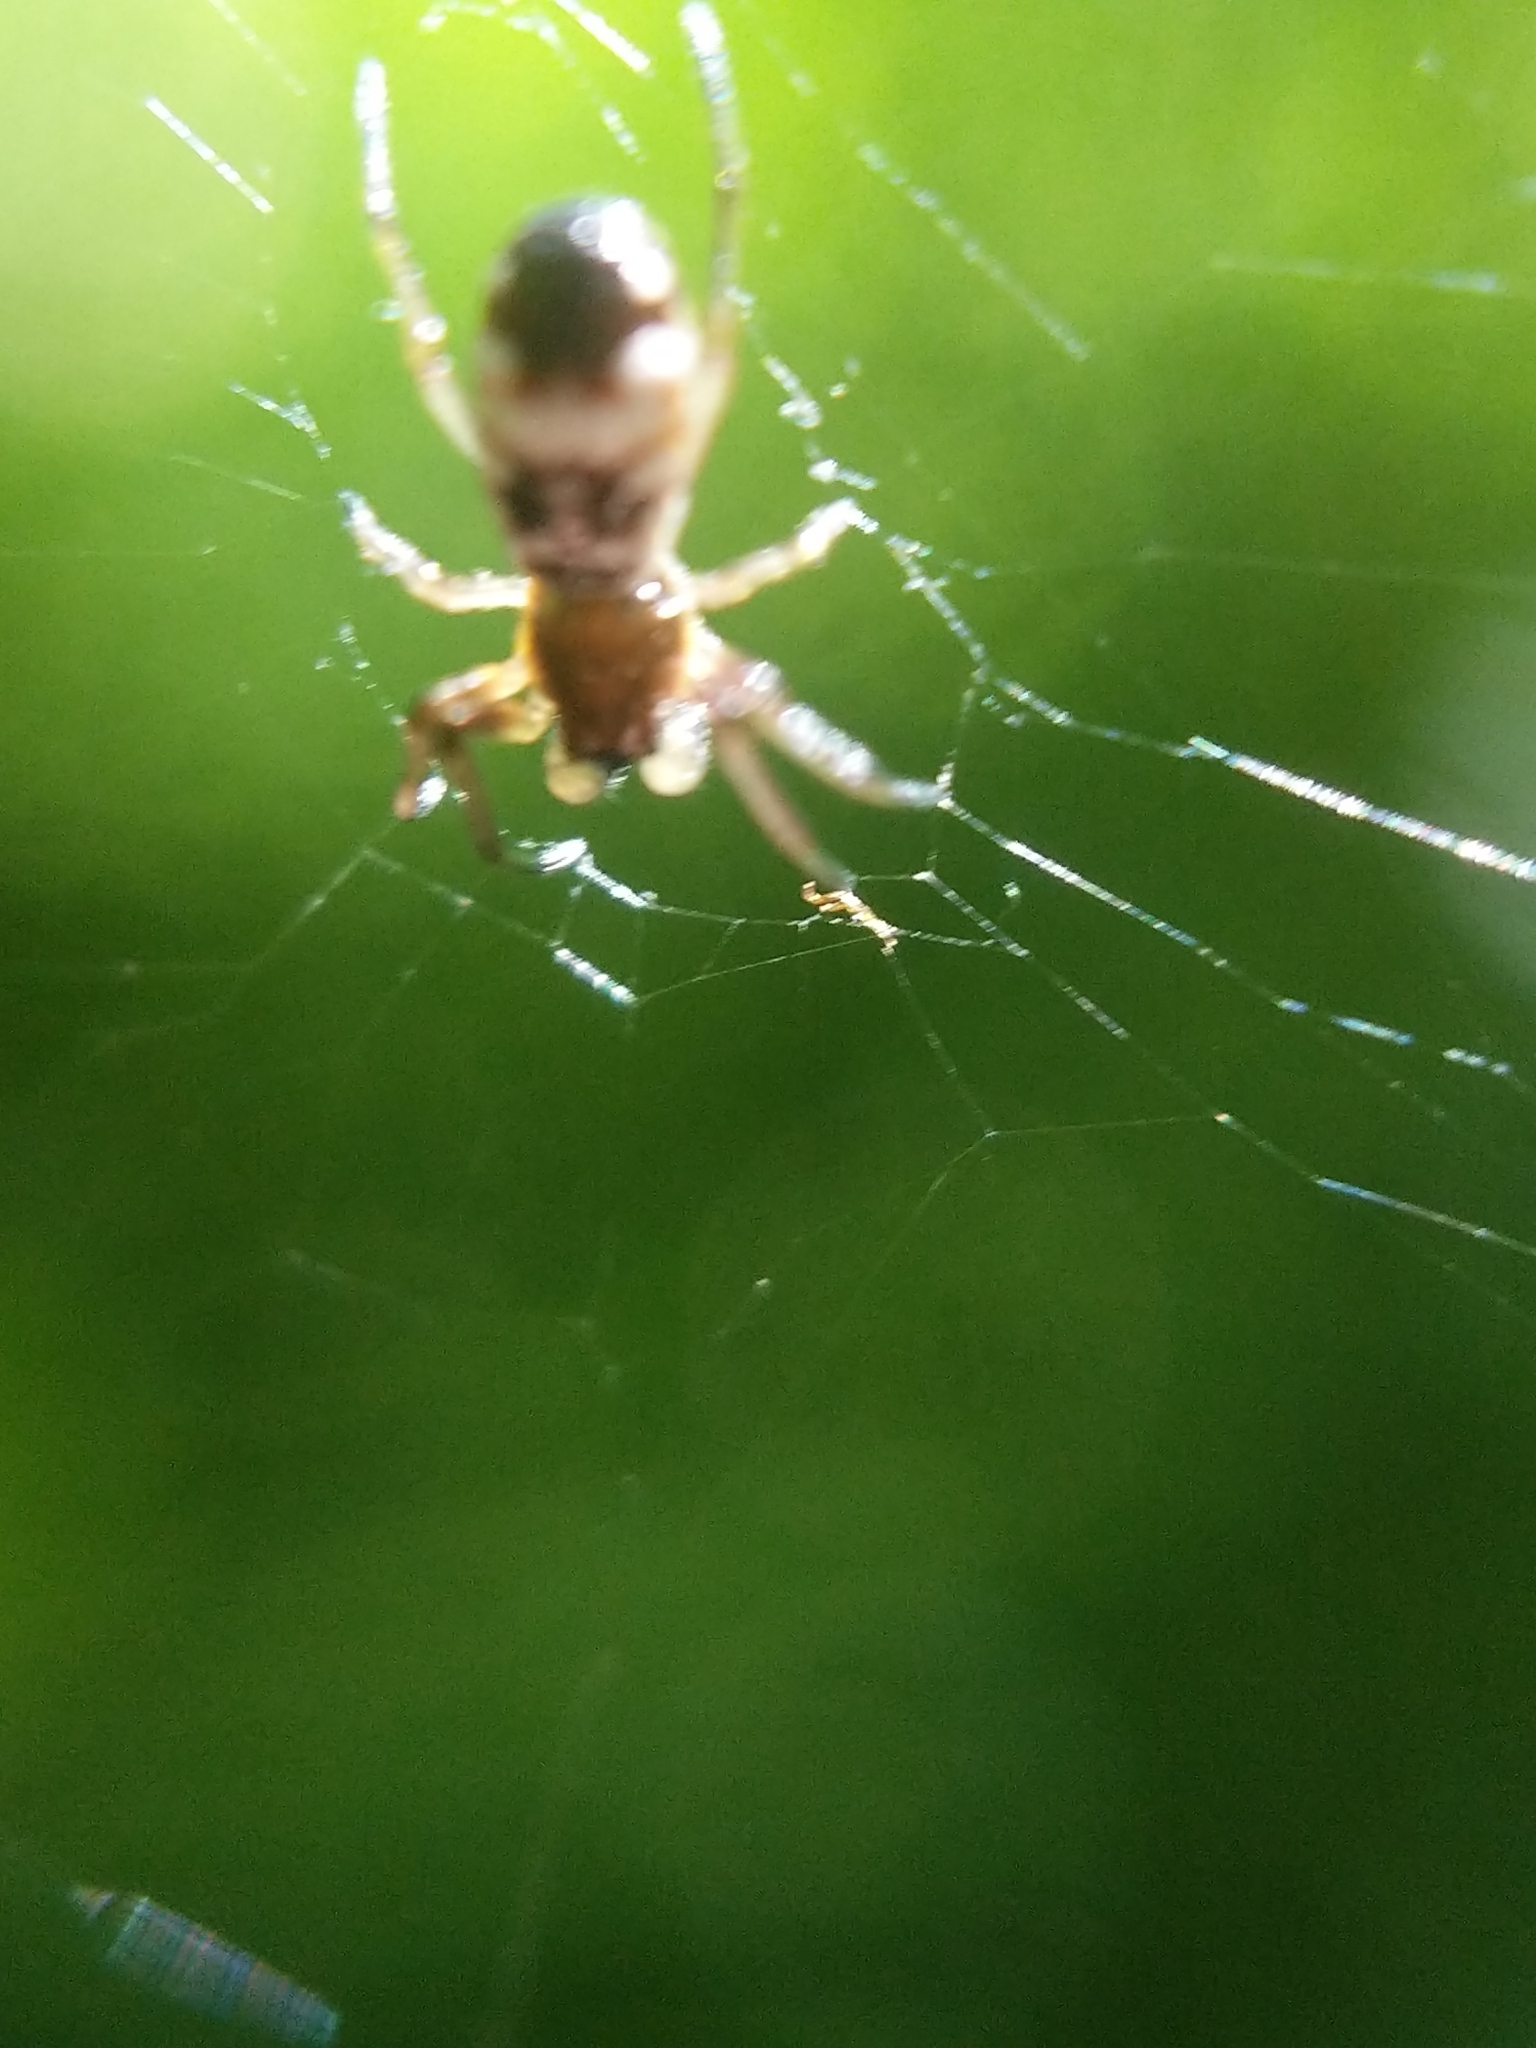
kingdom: Animalia
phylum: Arthropoda
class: Arachnida
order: Araneae
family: Araneidae
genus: Micrathena
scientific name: Micrathena mitrata
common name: Orb weavers
